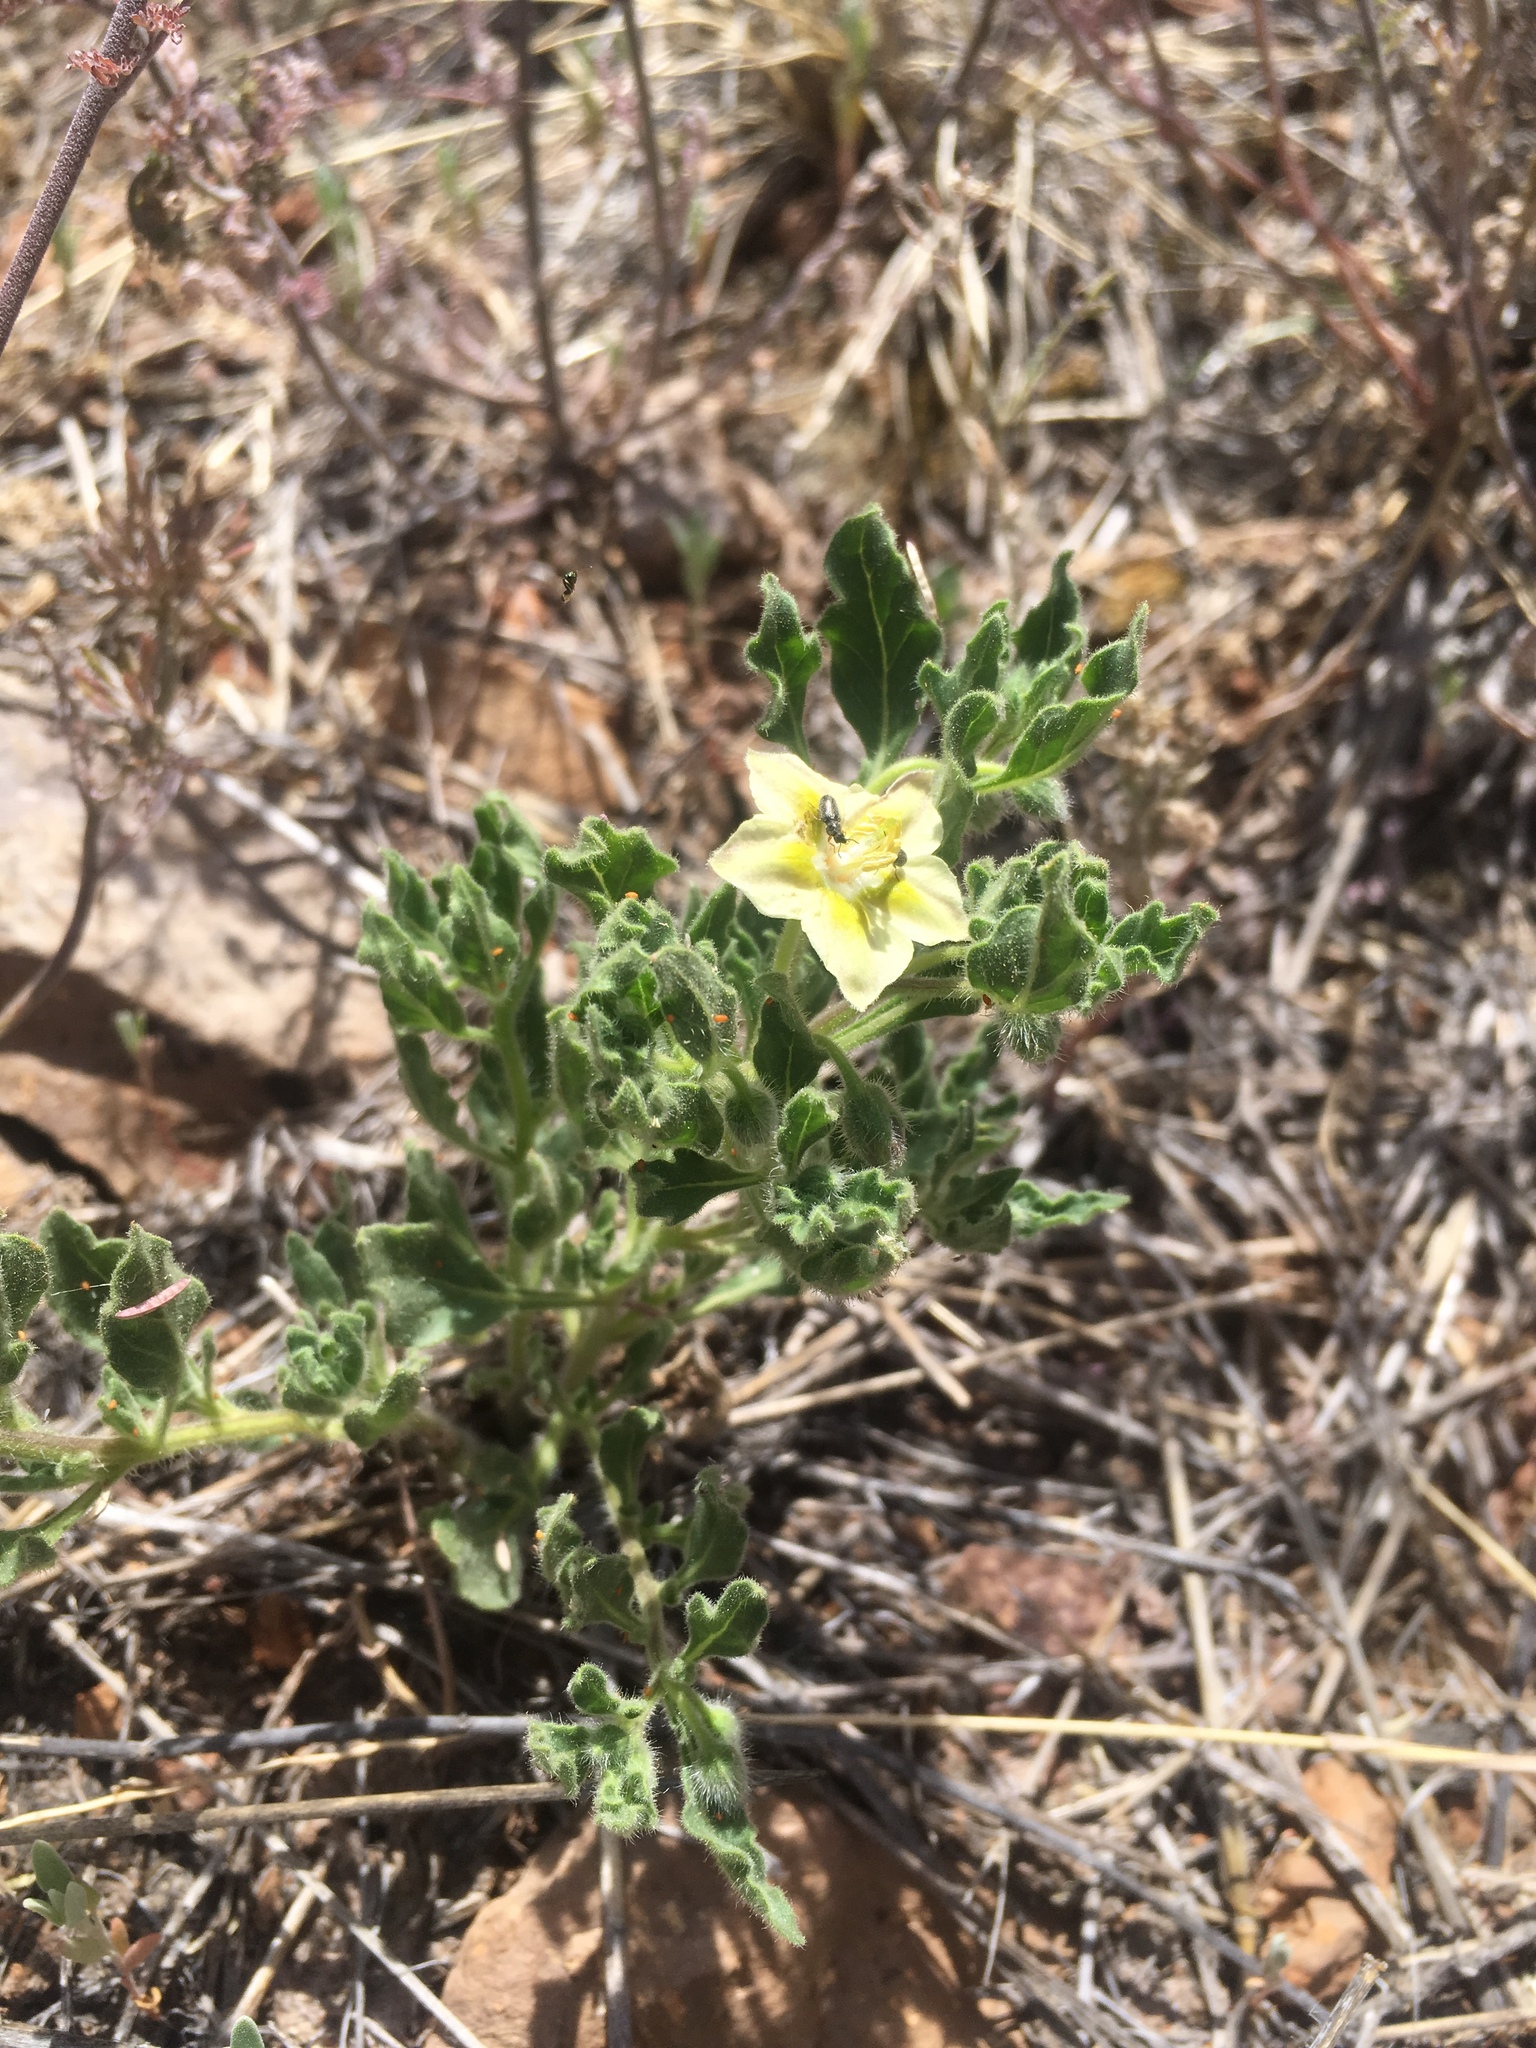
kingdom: Plantae
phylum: Tracheophyta
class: Magnoliopsida
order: Solanales
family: Solanaceae
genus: Chamaesaracha
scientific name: Chamaesaracha sordida
